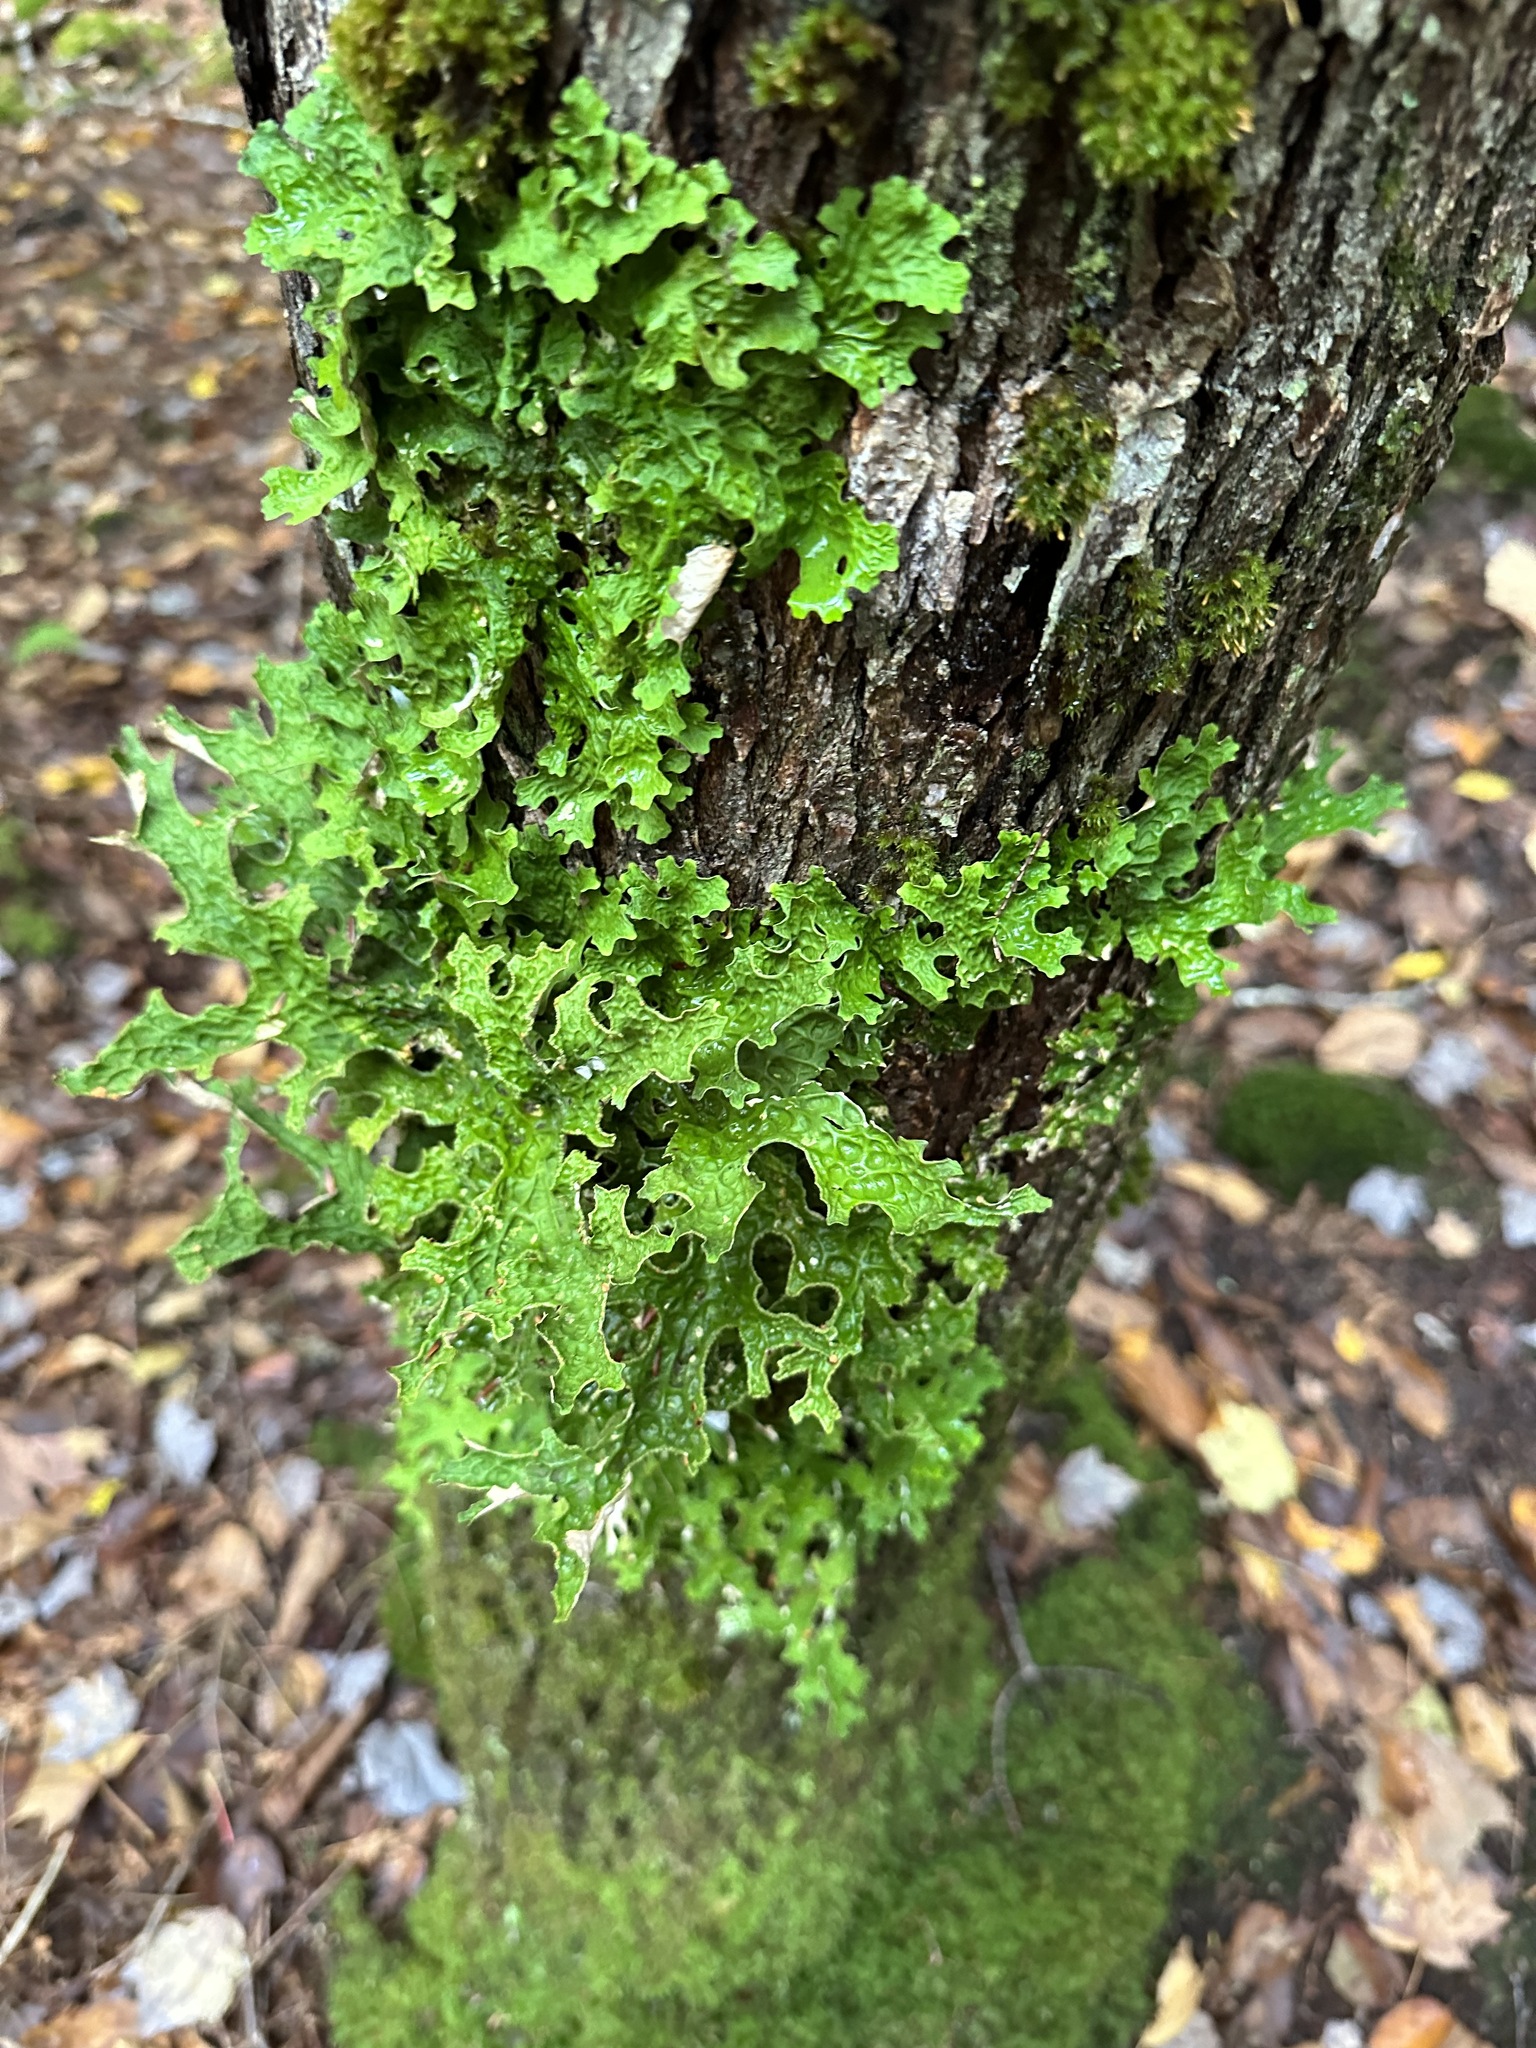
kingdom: Fungi
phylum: Ascomycota
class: Lecanoromycetes
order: Peltigerales
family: Lobariaceae
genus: Lobaria
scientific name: Lobaria pulmonaria
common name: Lungwort
